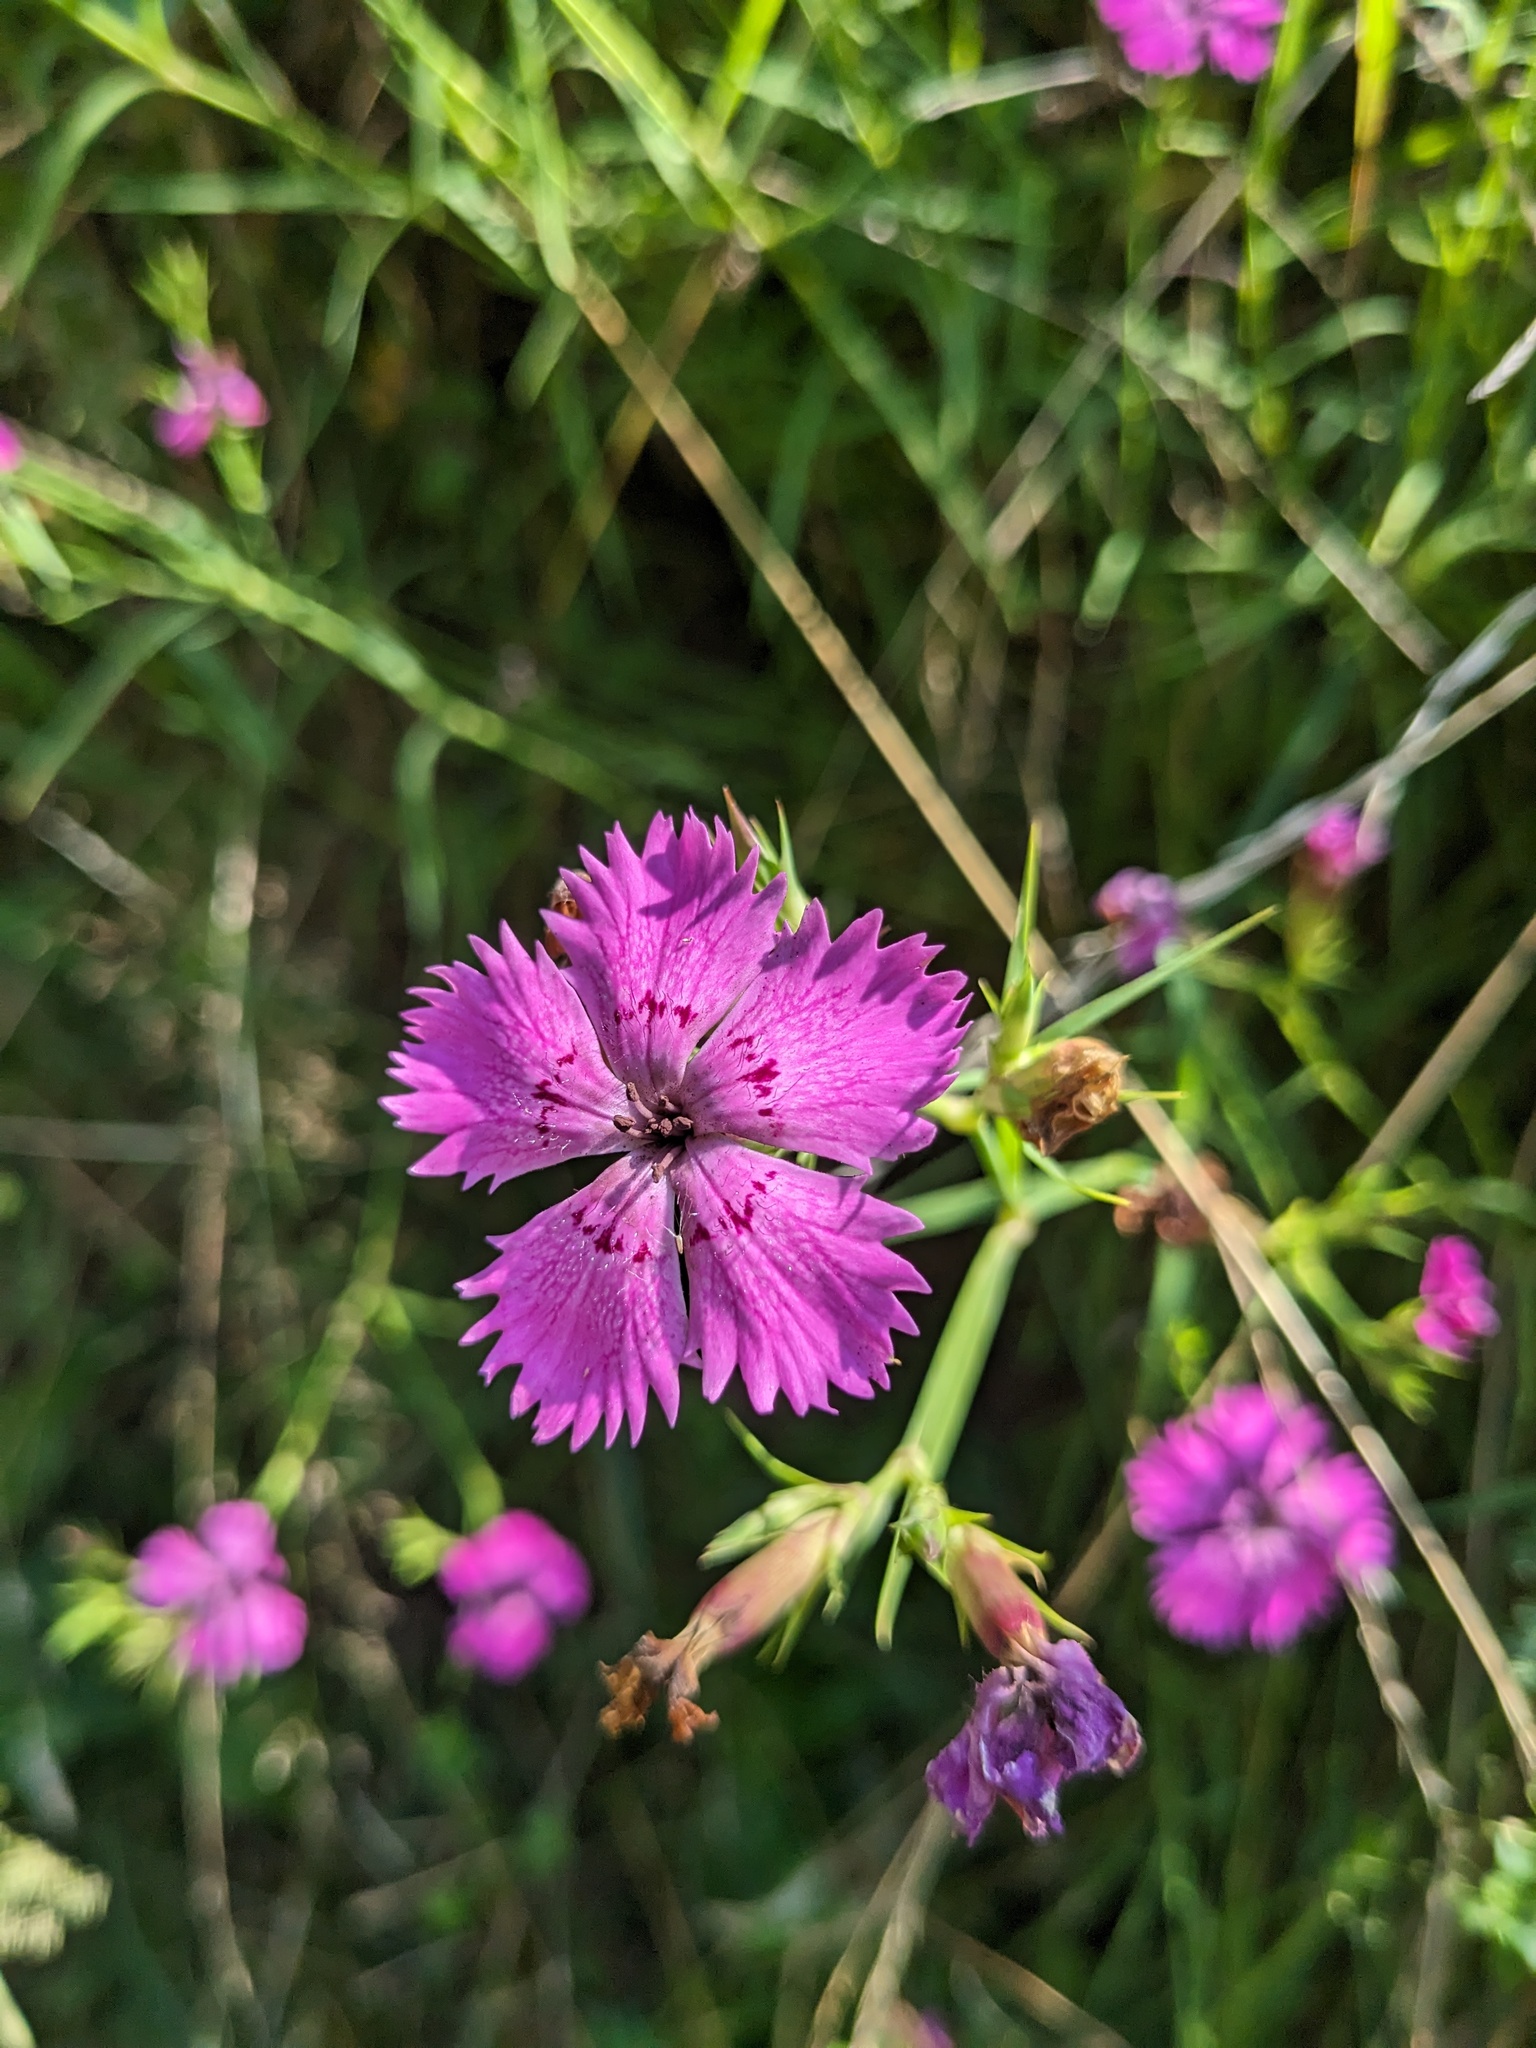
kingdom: Plantae
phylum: Tracheophyta
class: Magnoliopsida
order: Caryophyllales
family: Caryophyllaceae
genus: Dianthus
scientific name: Dianthus seguieri
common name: Ragged pink
